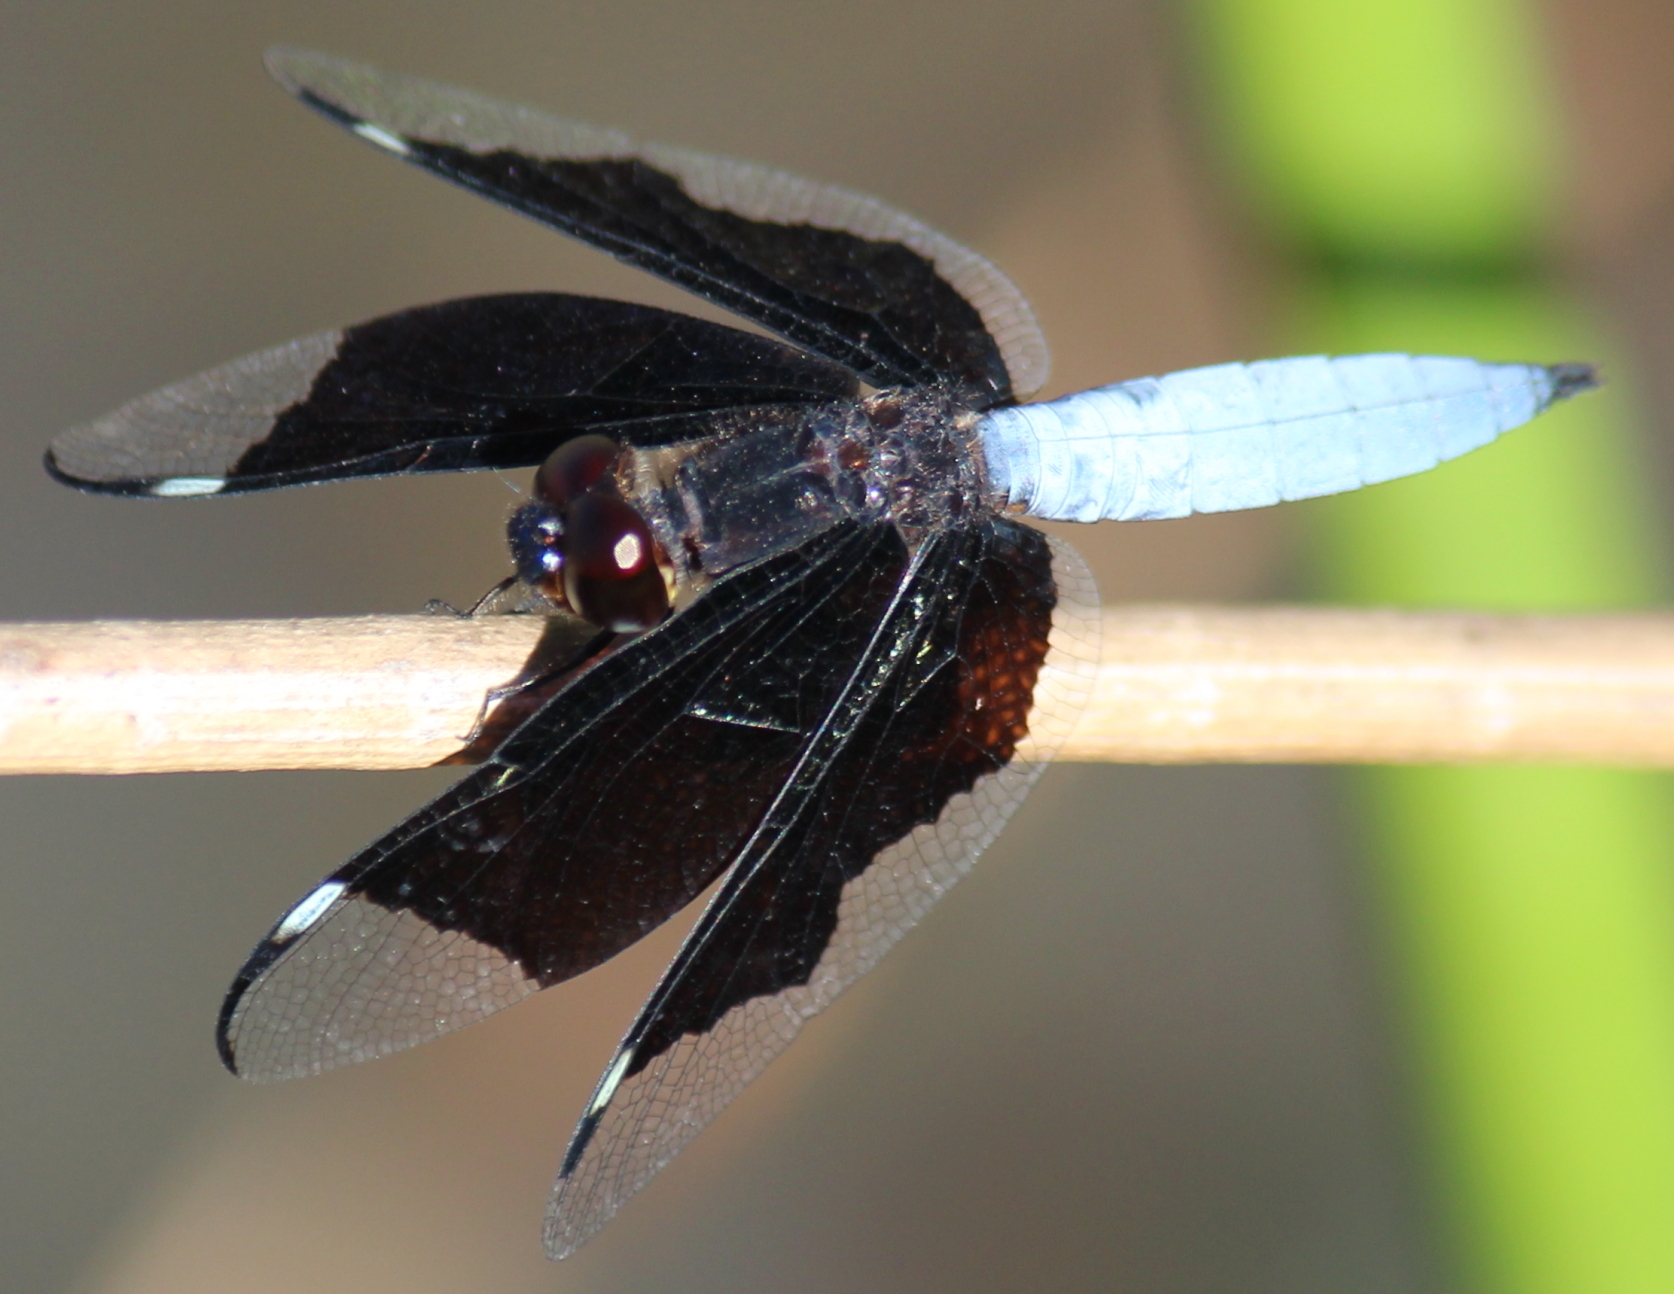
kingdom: Animalia
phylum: Arthropoda
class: Insecta
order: Odonata
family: Libellulidae
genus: Palpopleura
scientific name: Palpopleura lucia
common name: Lucia widow
